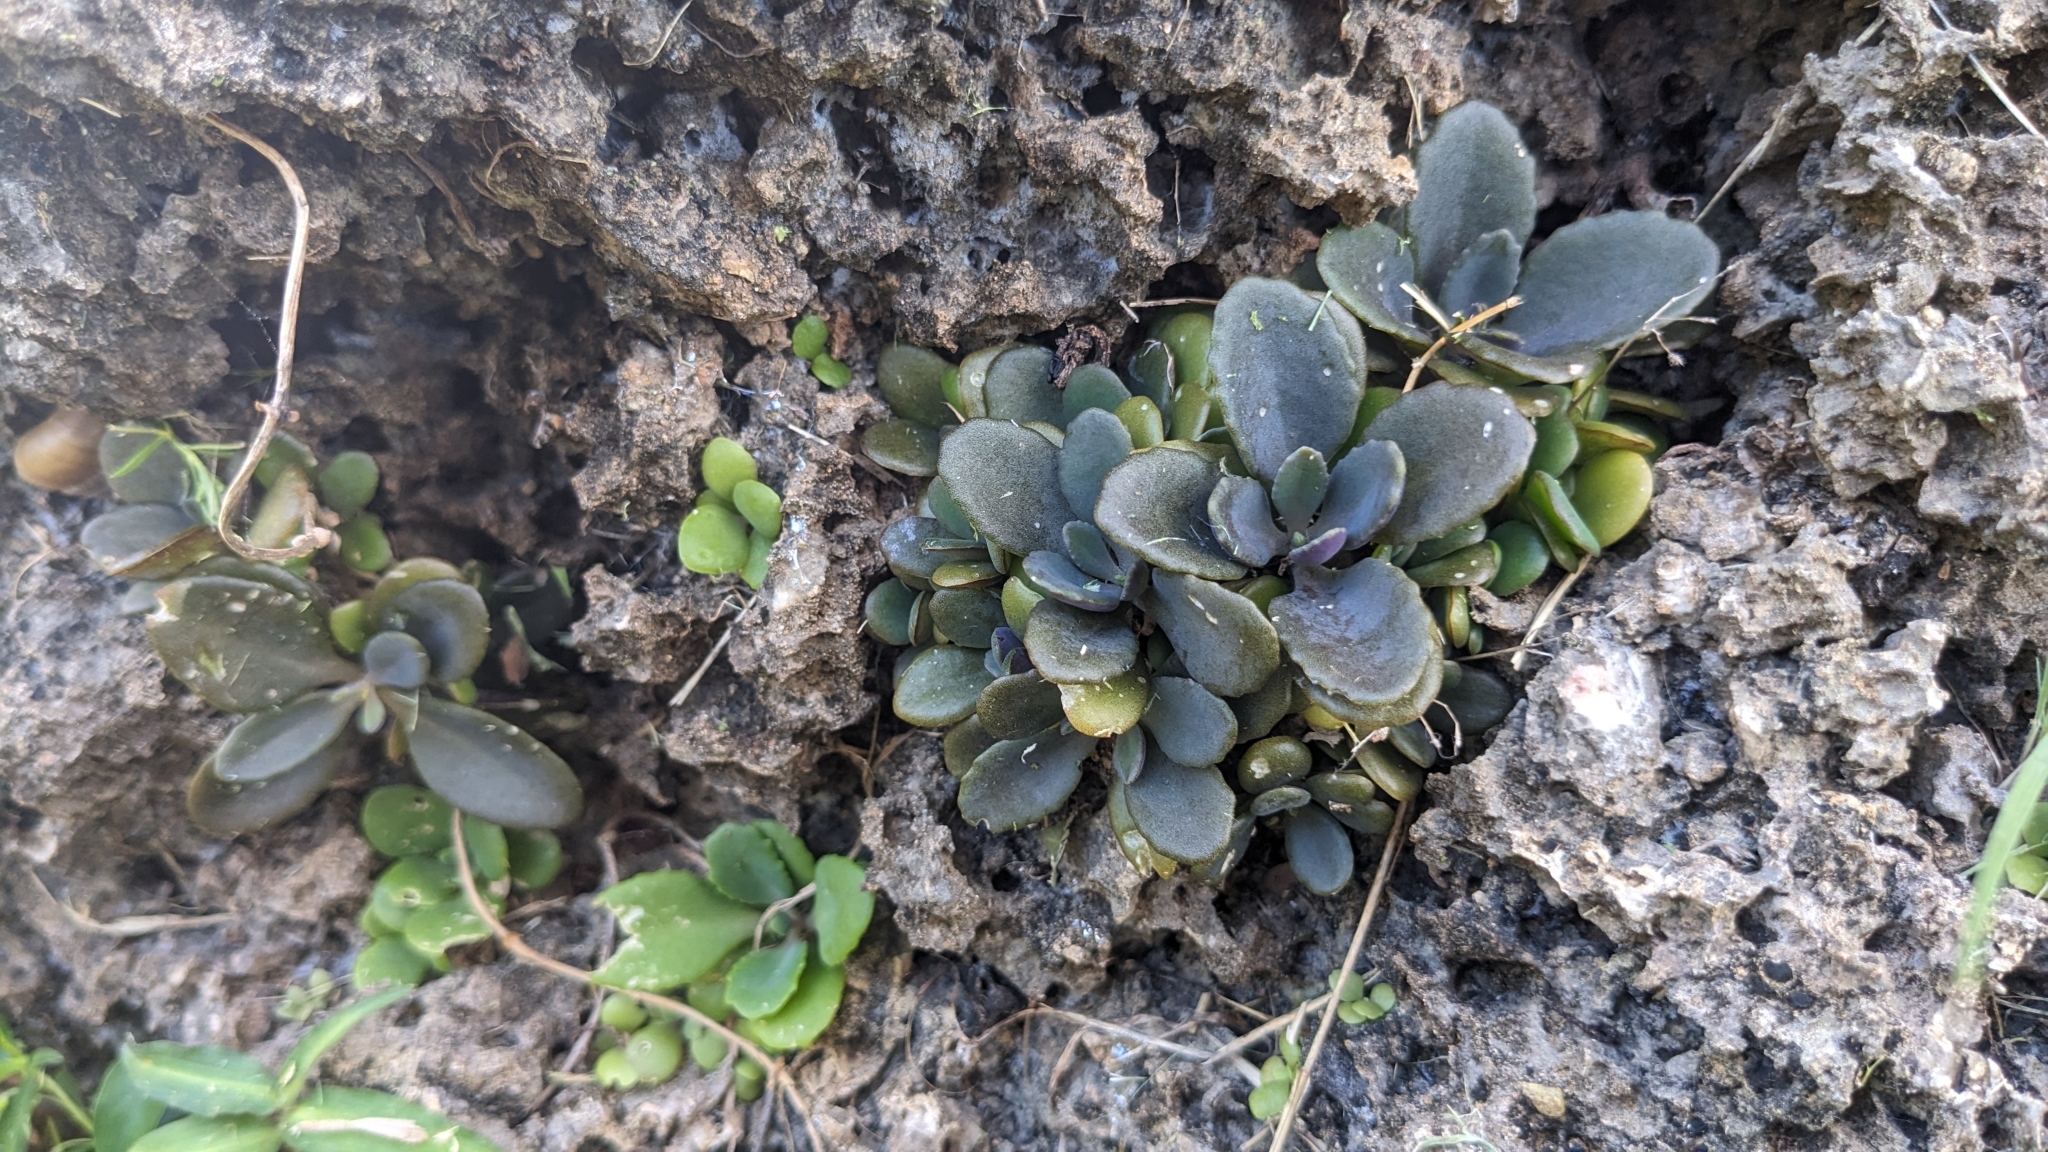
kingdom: Plantae
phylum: Tracheophyta
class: Magnoliopsida
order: Saxifragales
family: Crassulaceae
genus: Kalanchoe
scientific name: Kalanchoe integra
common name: Neverdie
